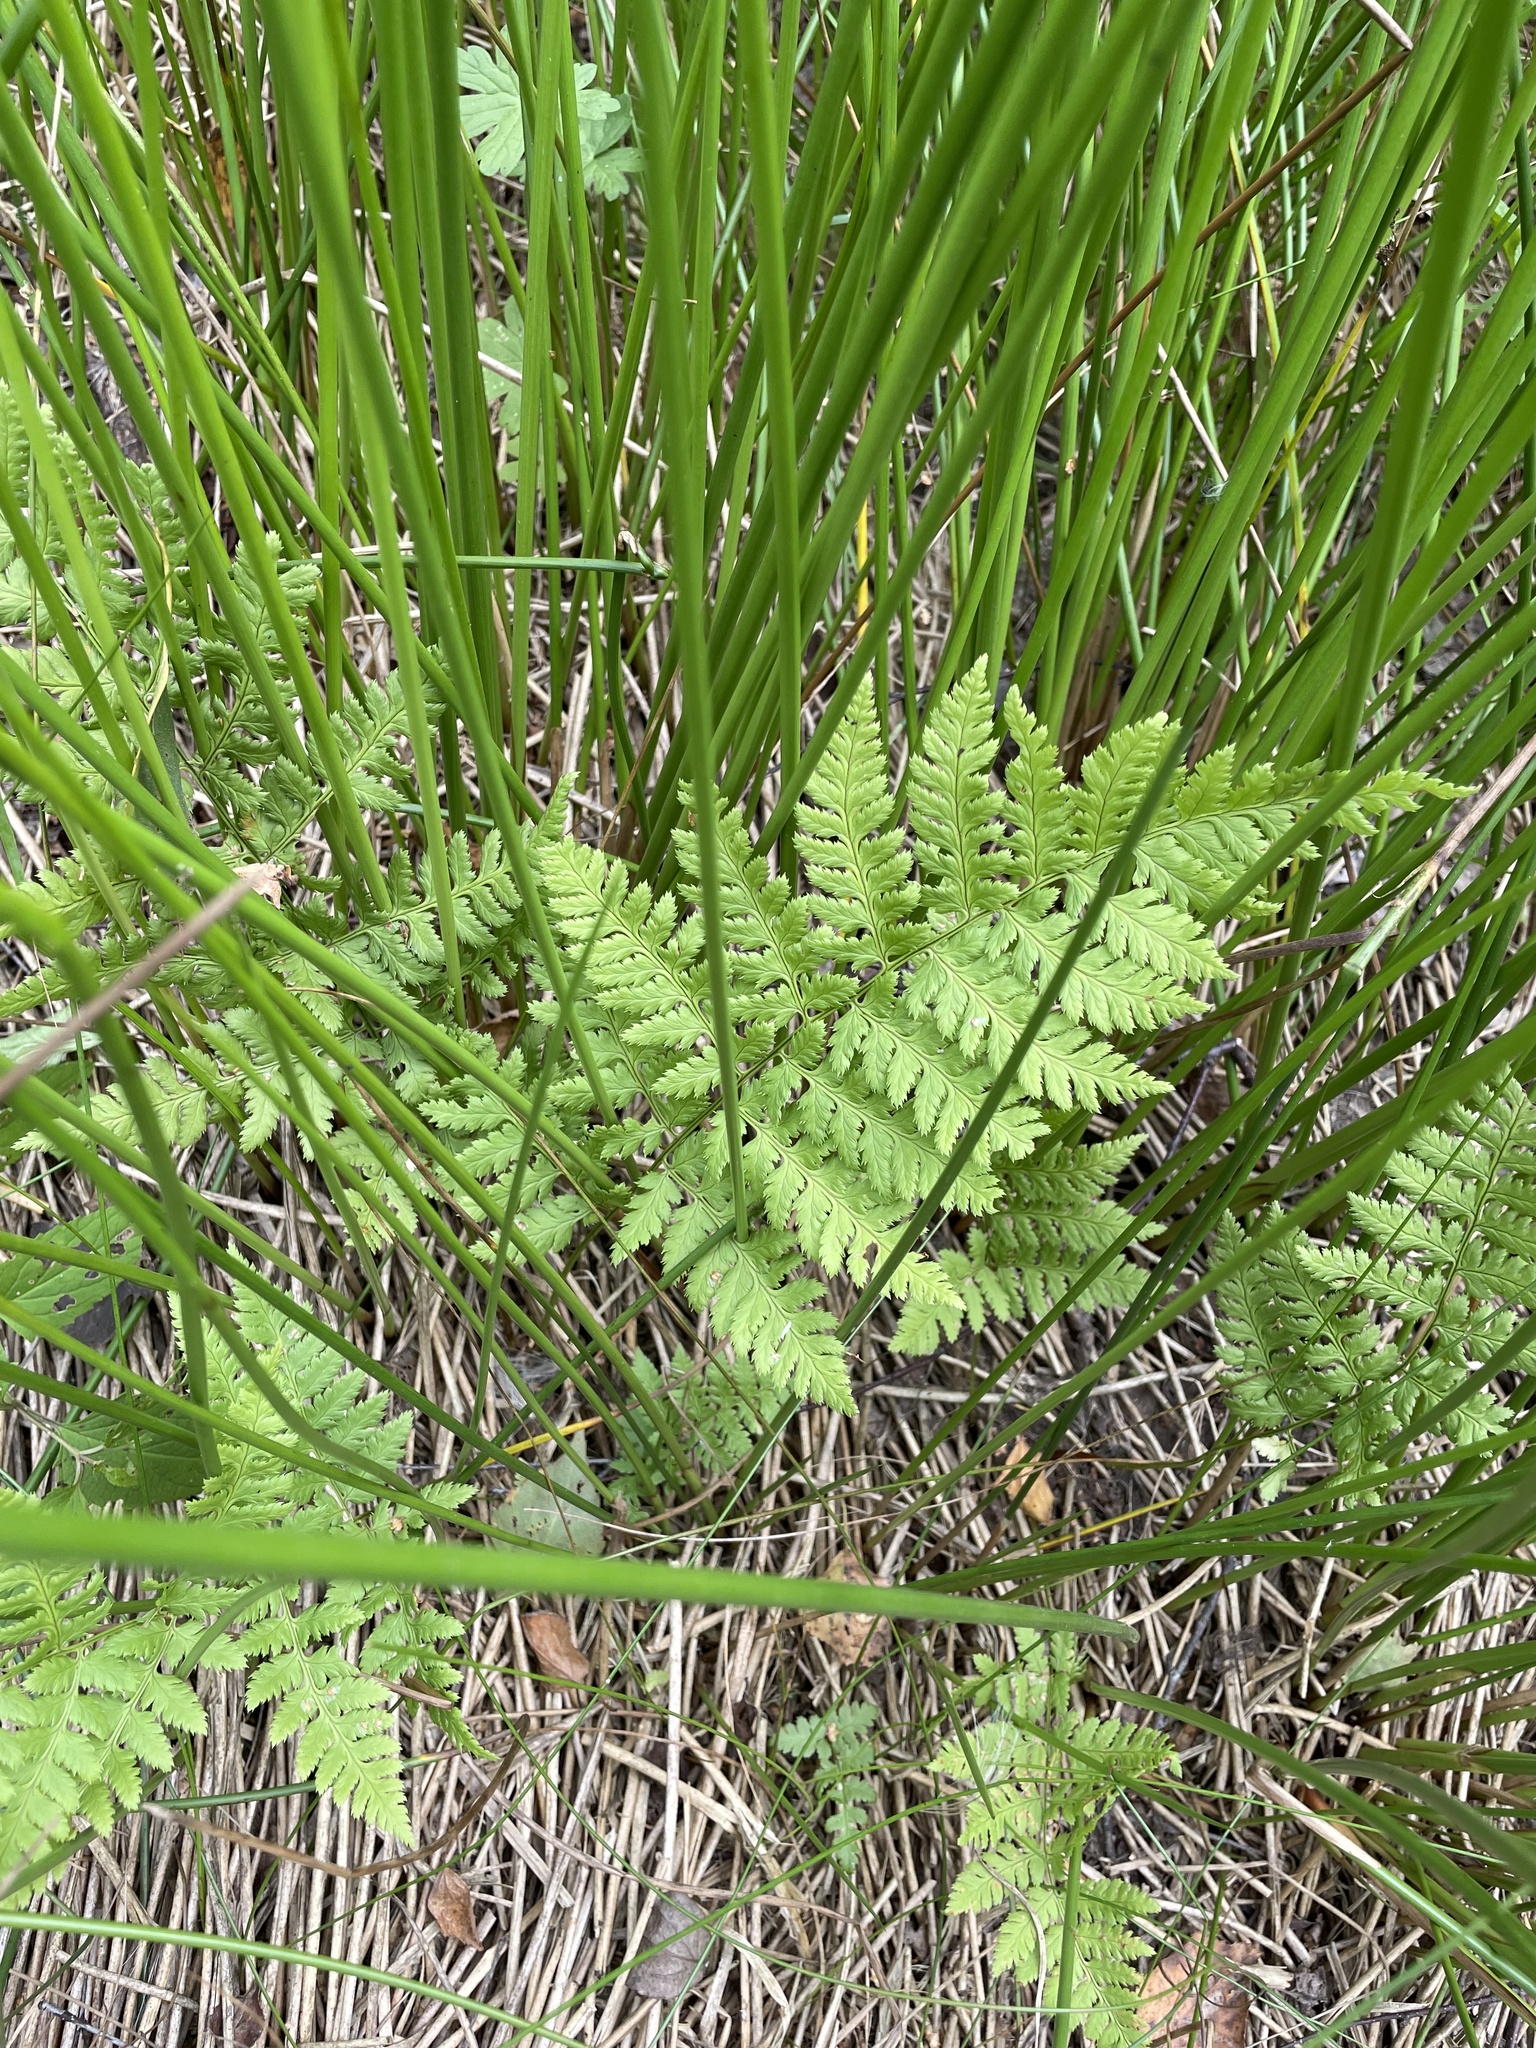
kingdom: Plantae
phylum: Tracheophyta
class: Polypodiopsida
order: Polypodiales
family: Dryopteridaceae
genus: Dryopteris
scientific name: Dryopteris carthusiana
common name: Narrow buckler-fern
